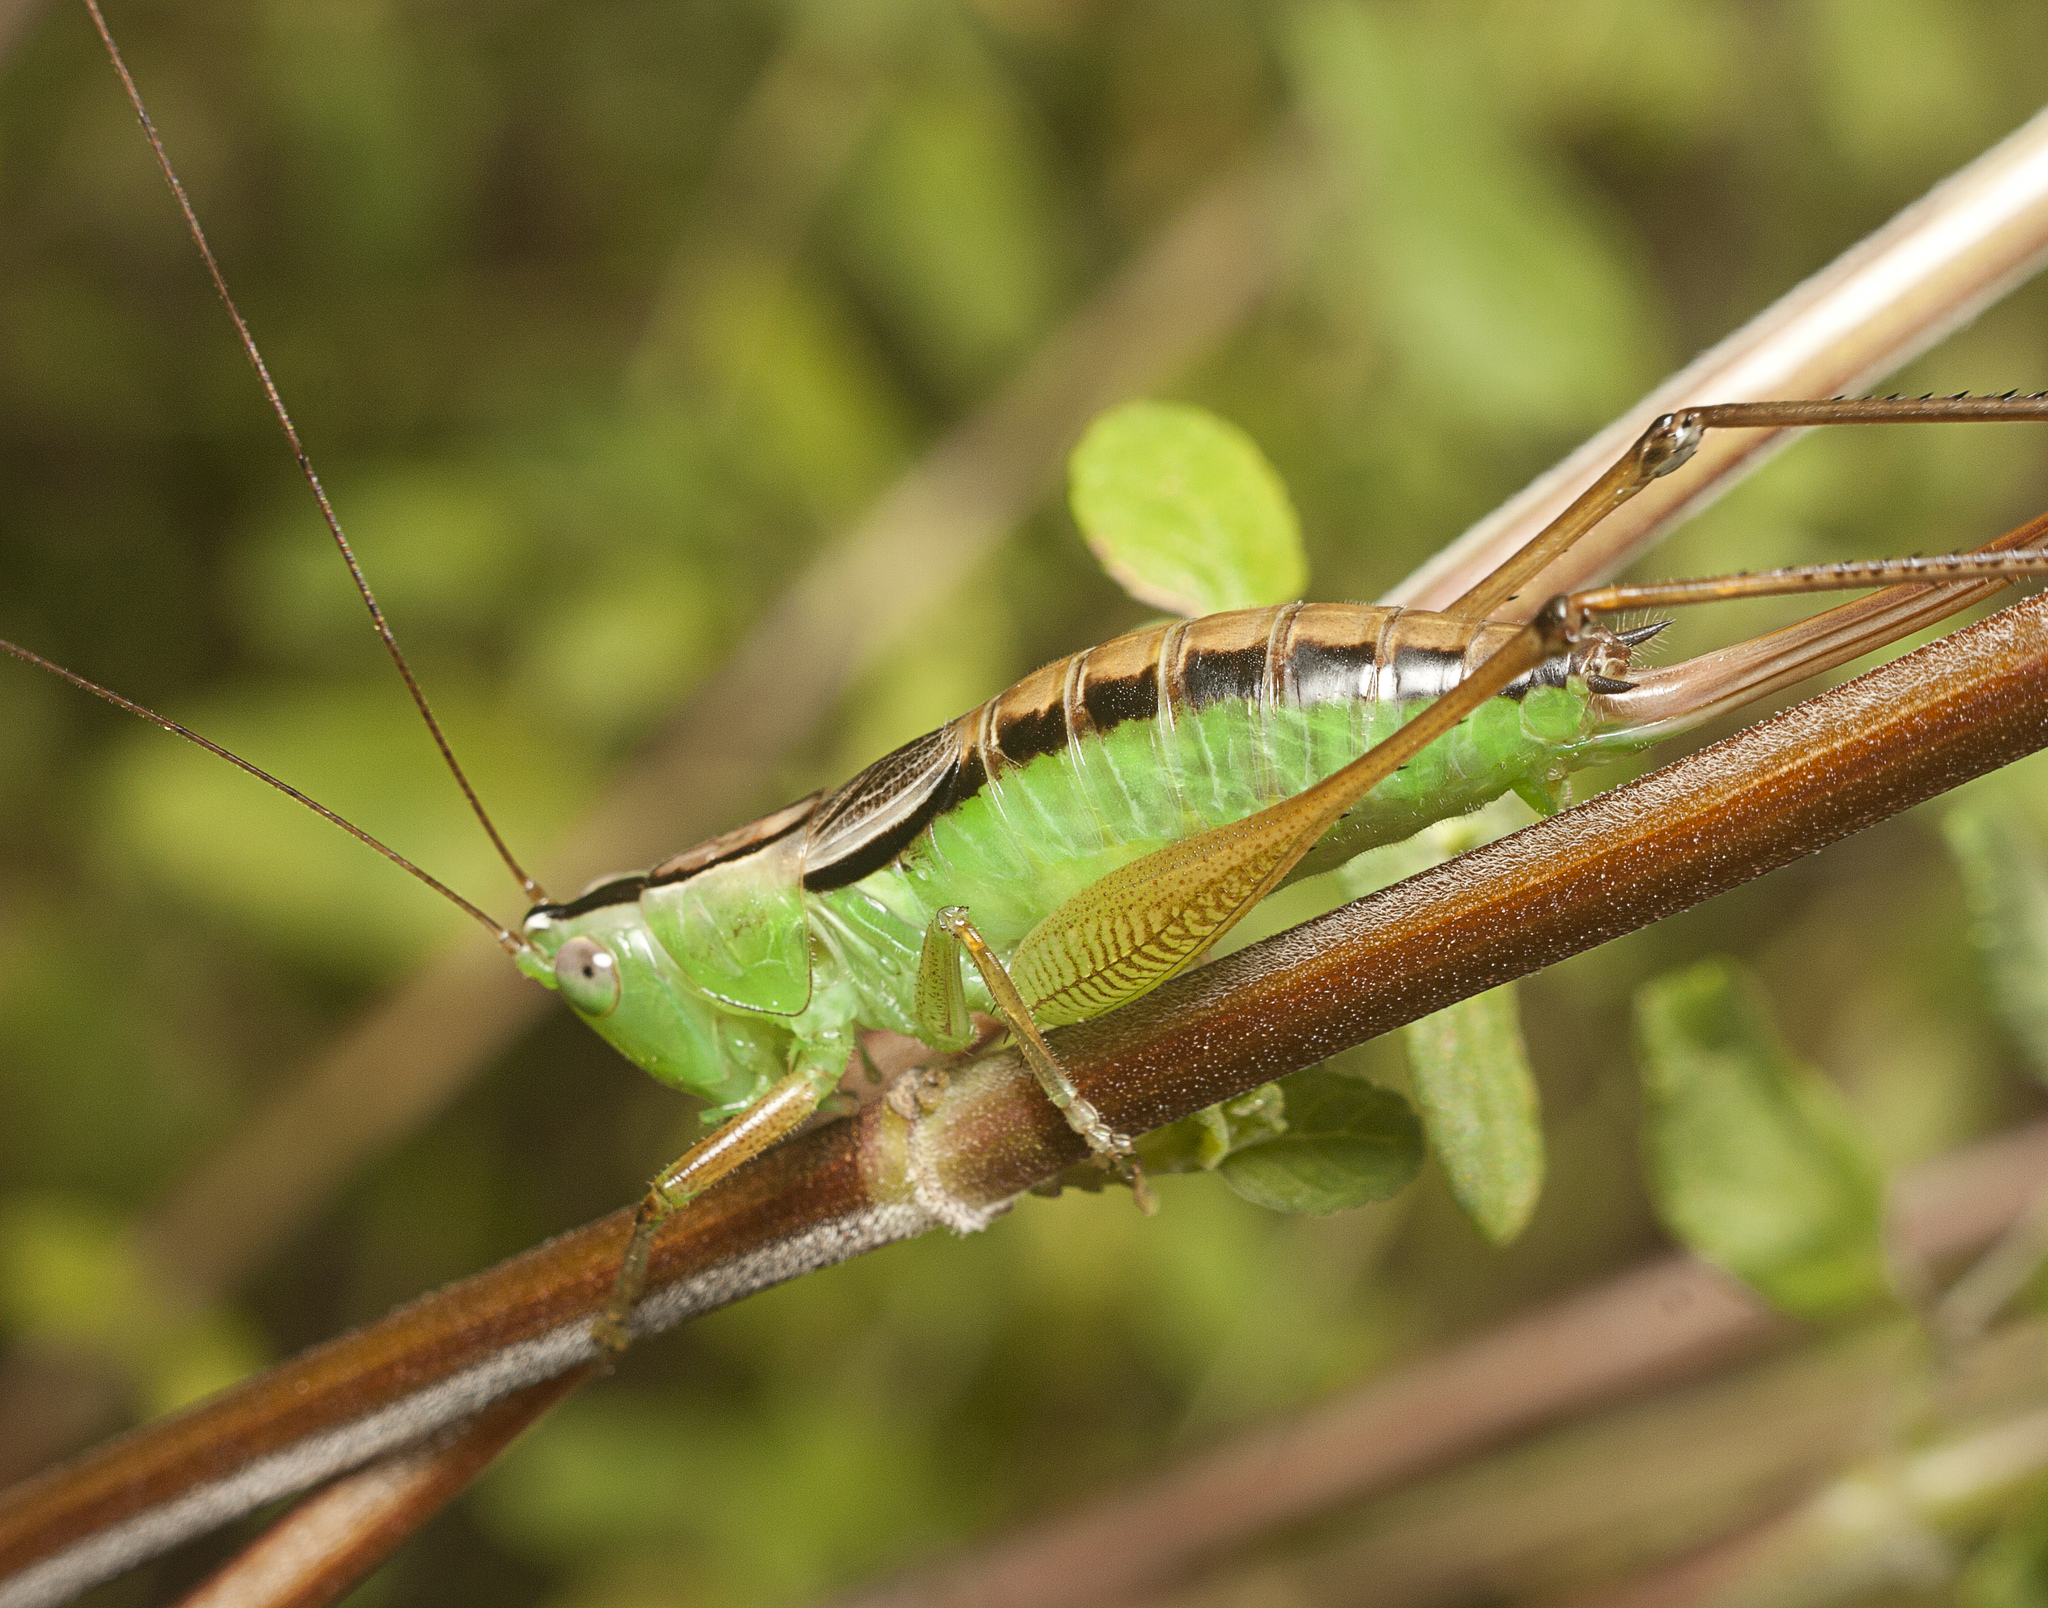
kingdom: Animalia
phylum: Arthropoda
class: Insecta
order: Orthoptera
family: Tettigoniidae
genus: Conocephalus
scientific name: Conocephalus semivittatus
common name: Blackish meadow katydid
